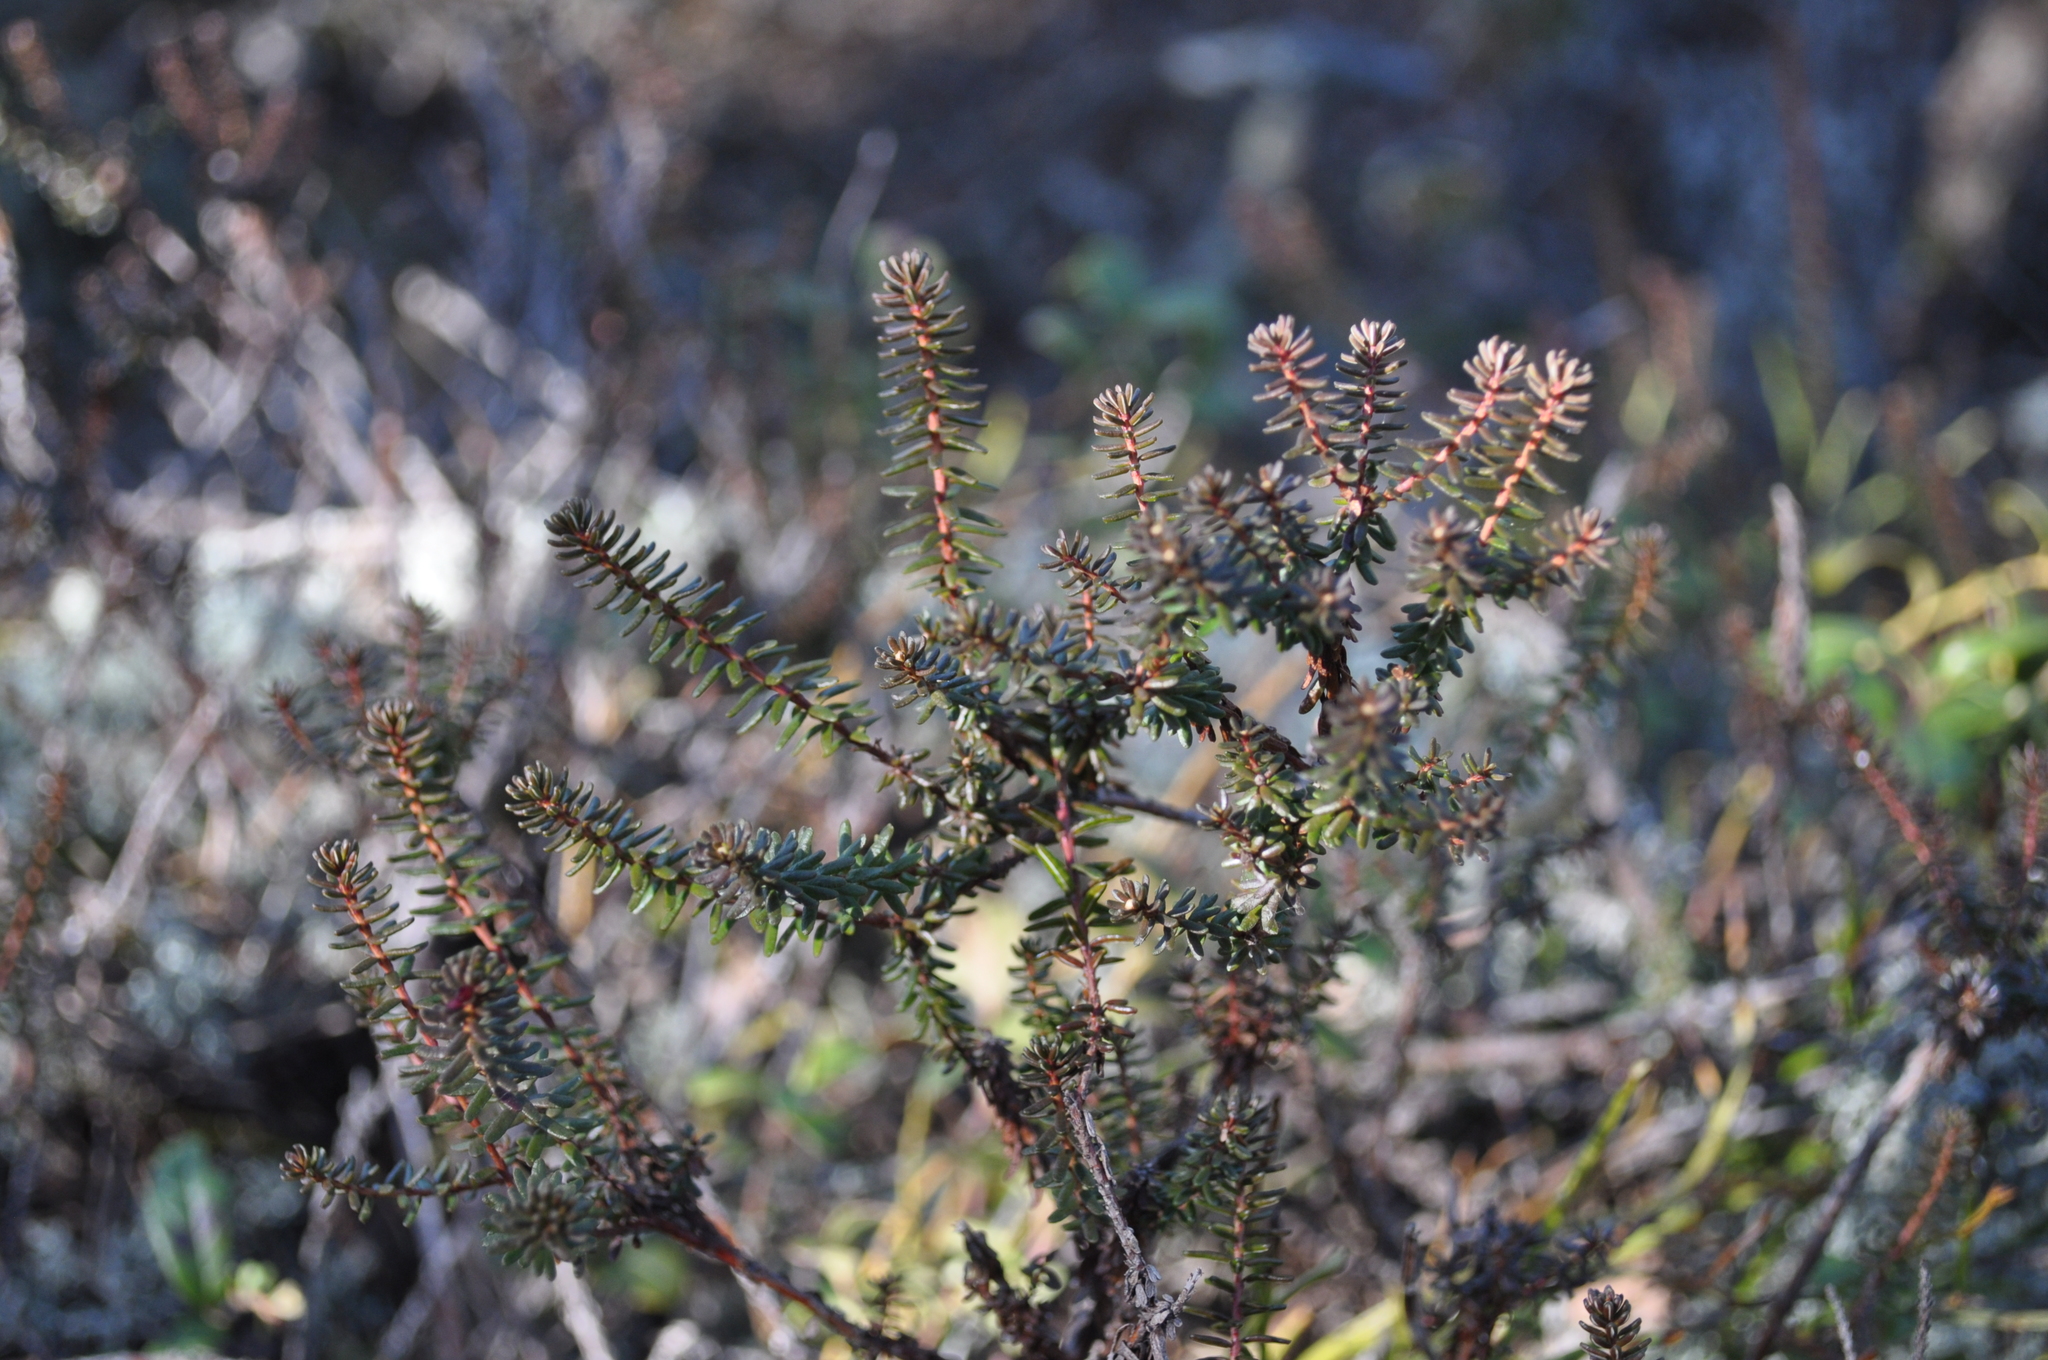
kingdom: Plantae
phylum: Tracheophyta
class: Magnoliopsida
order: Ericales
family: Ericaceae
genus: Empetrum
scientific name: Empetrum nigrum
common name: Black crowberry
